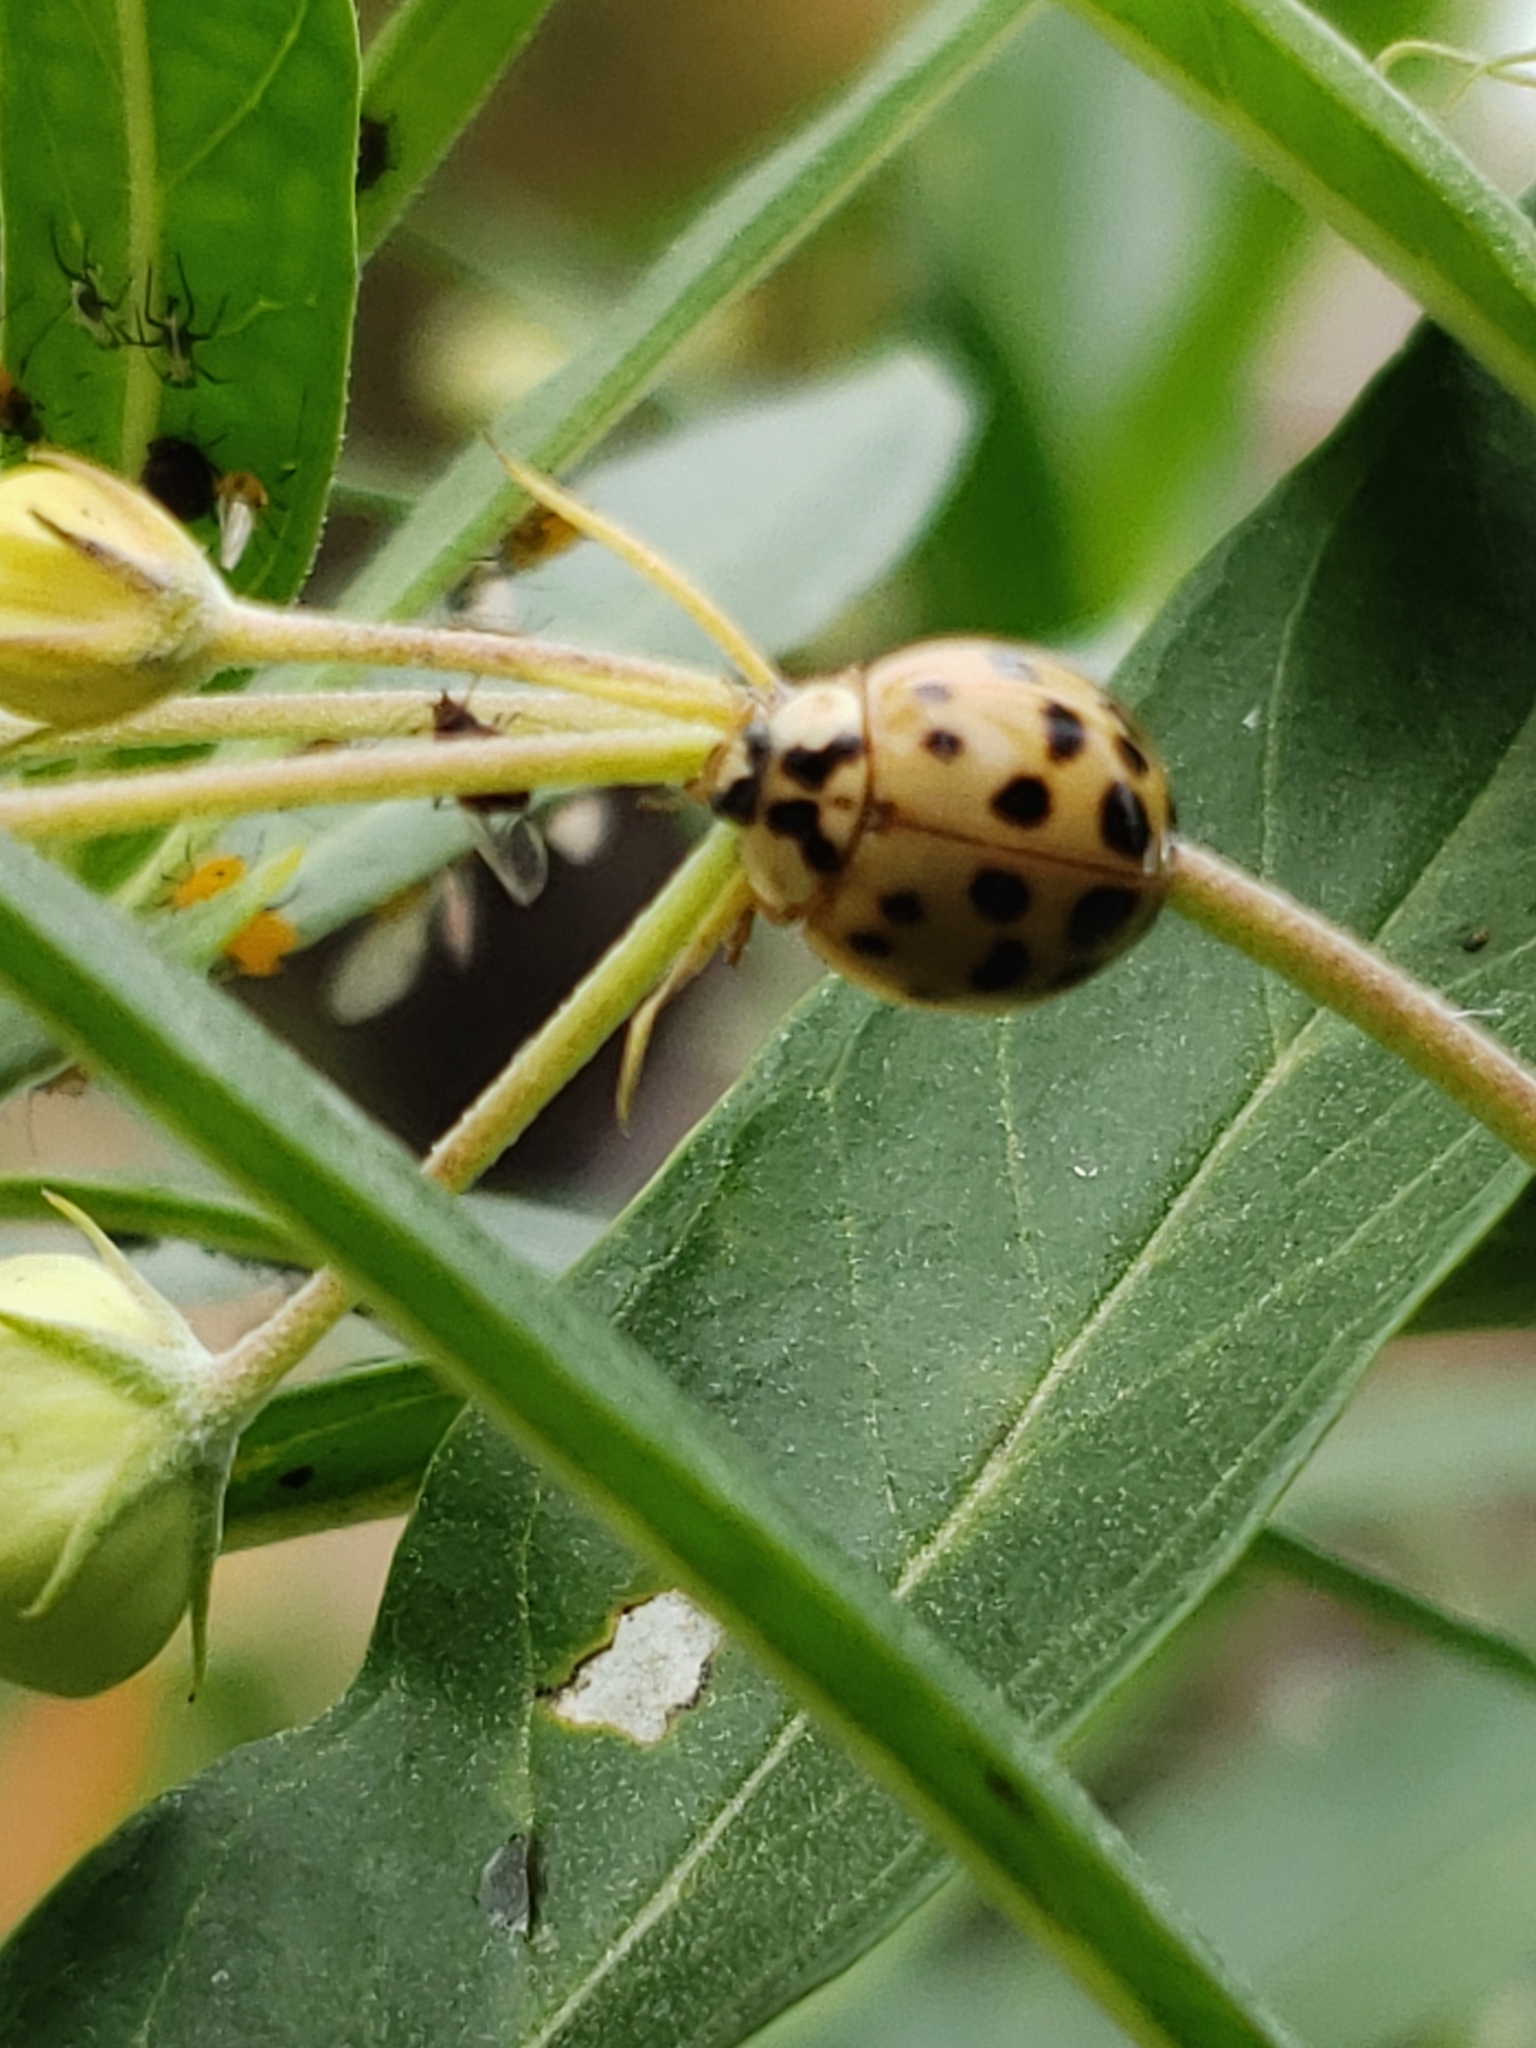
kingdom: Animalia
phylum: Arthropoda
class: Insecta
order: Coleoptera
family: Coccinellidae
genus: Harmonia
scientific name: Harmonia axyridis
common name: Harlequin ladybird
